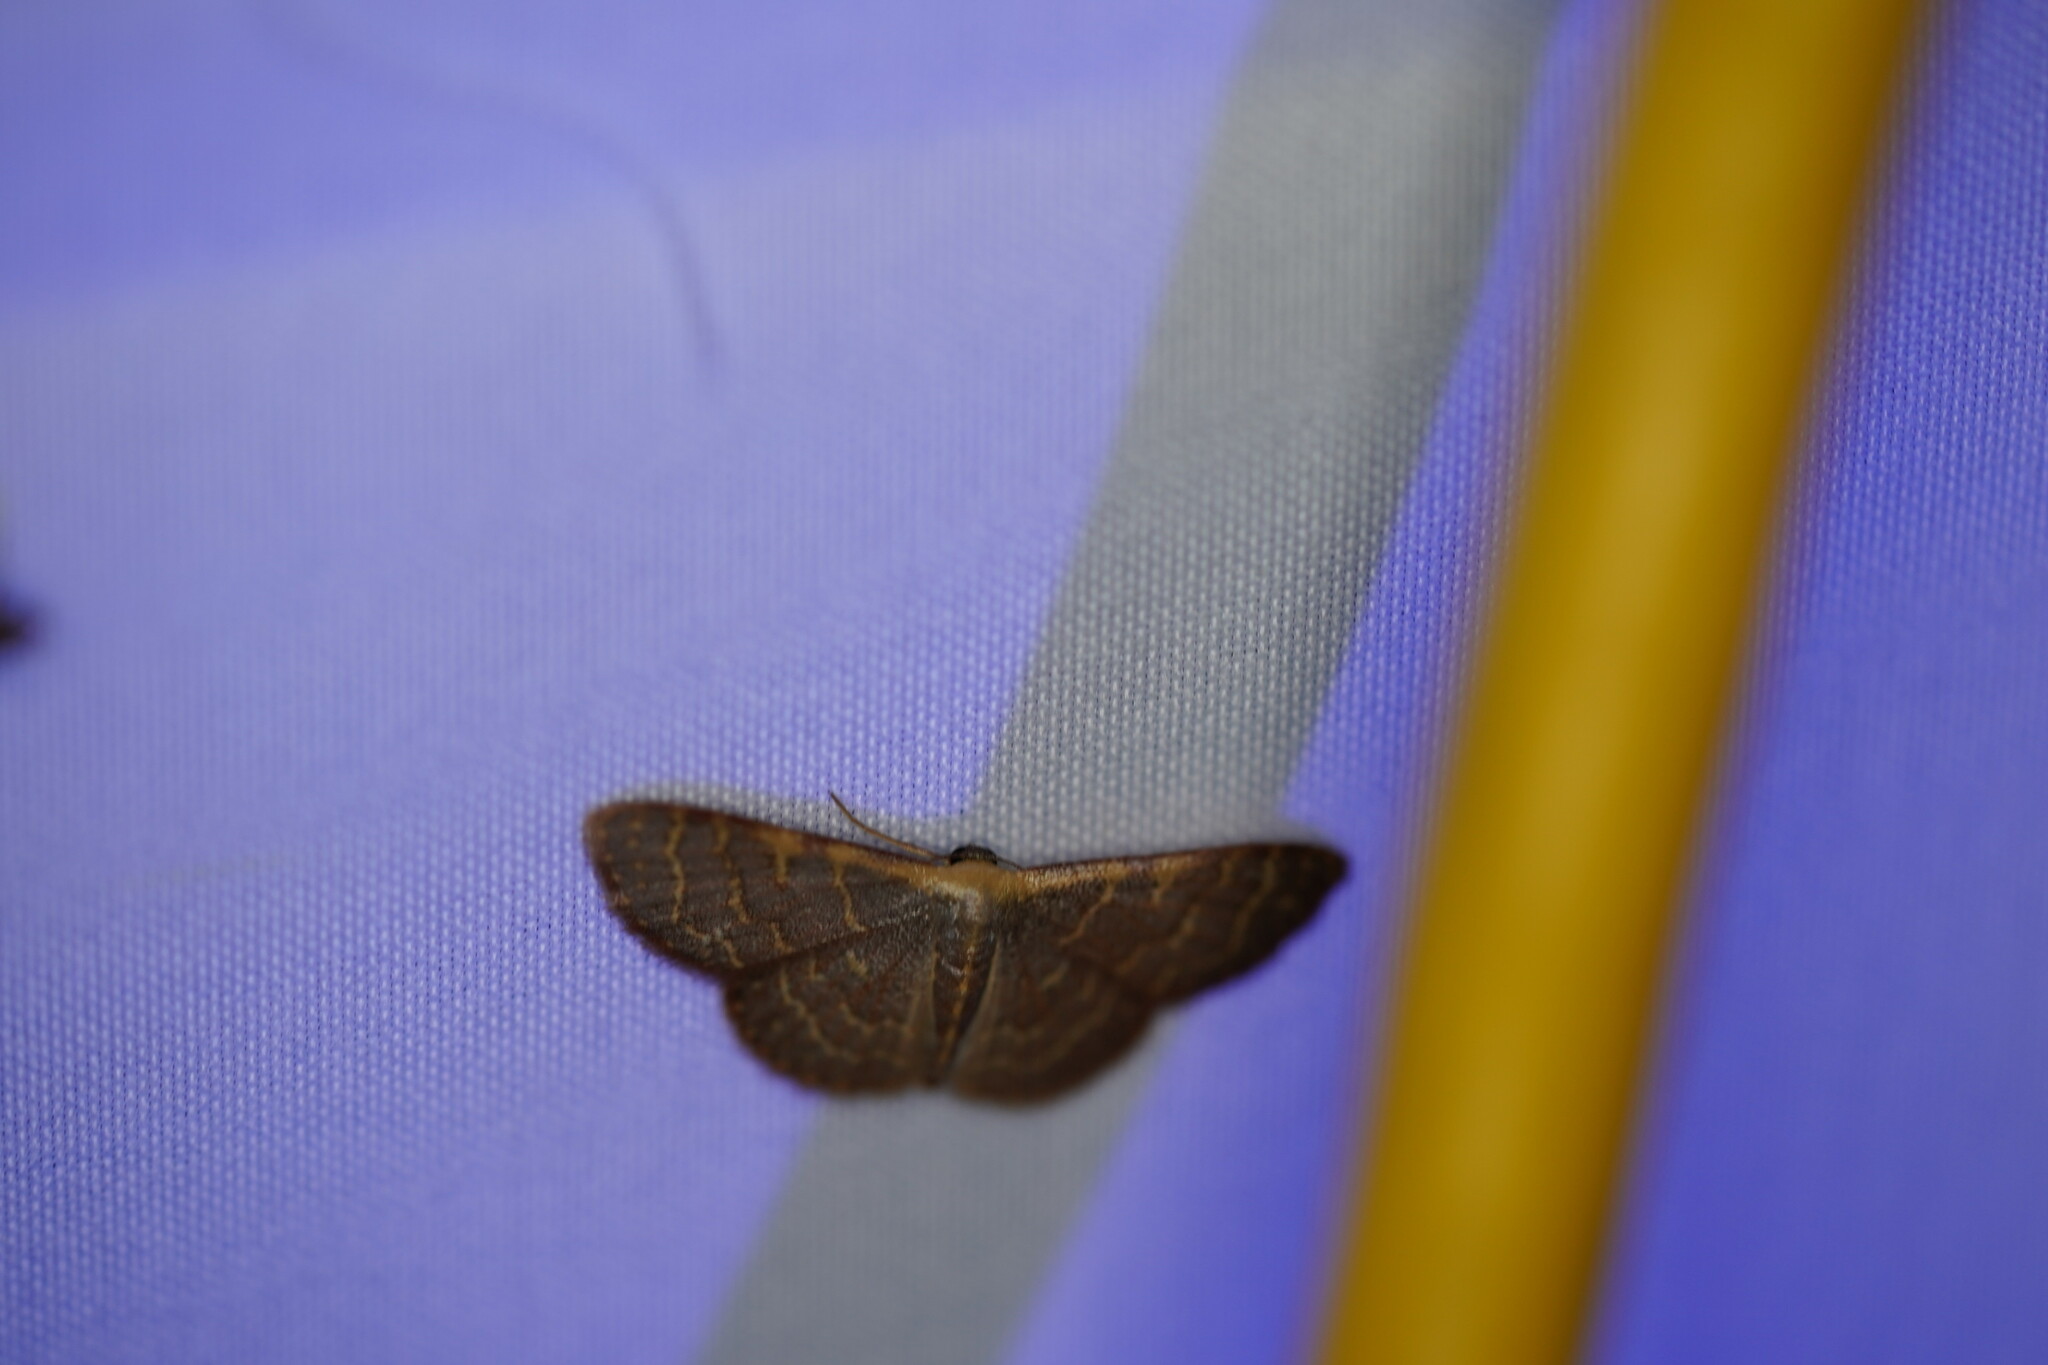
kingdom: Animalia
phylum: Arthropoda
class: Insecta
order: Lepidoptera
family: Geometridae
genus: Leptostales
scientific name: Leptostales pannaria
